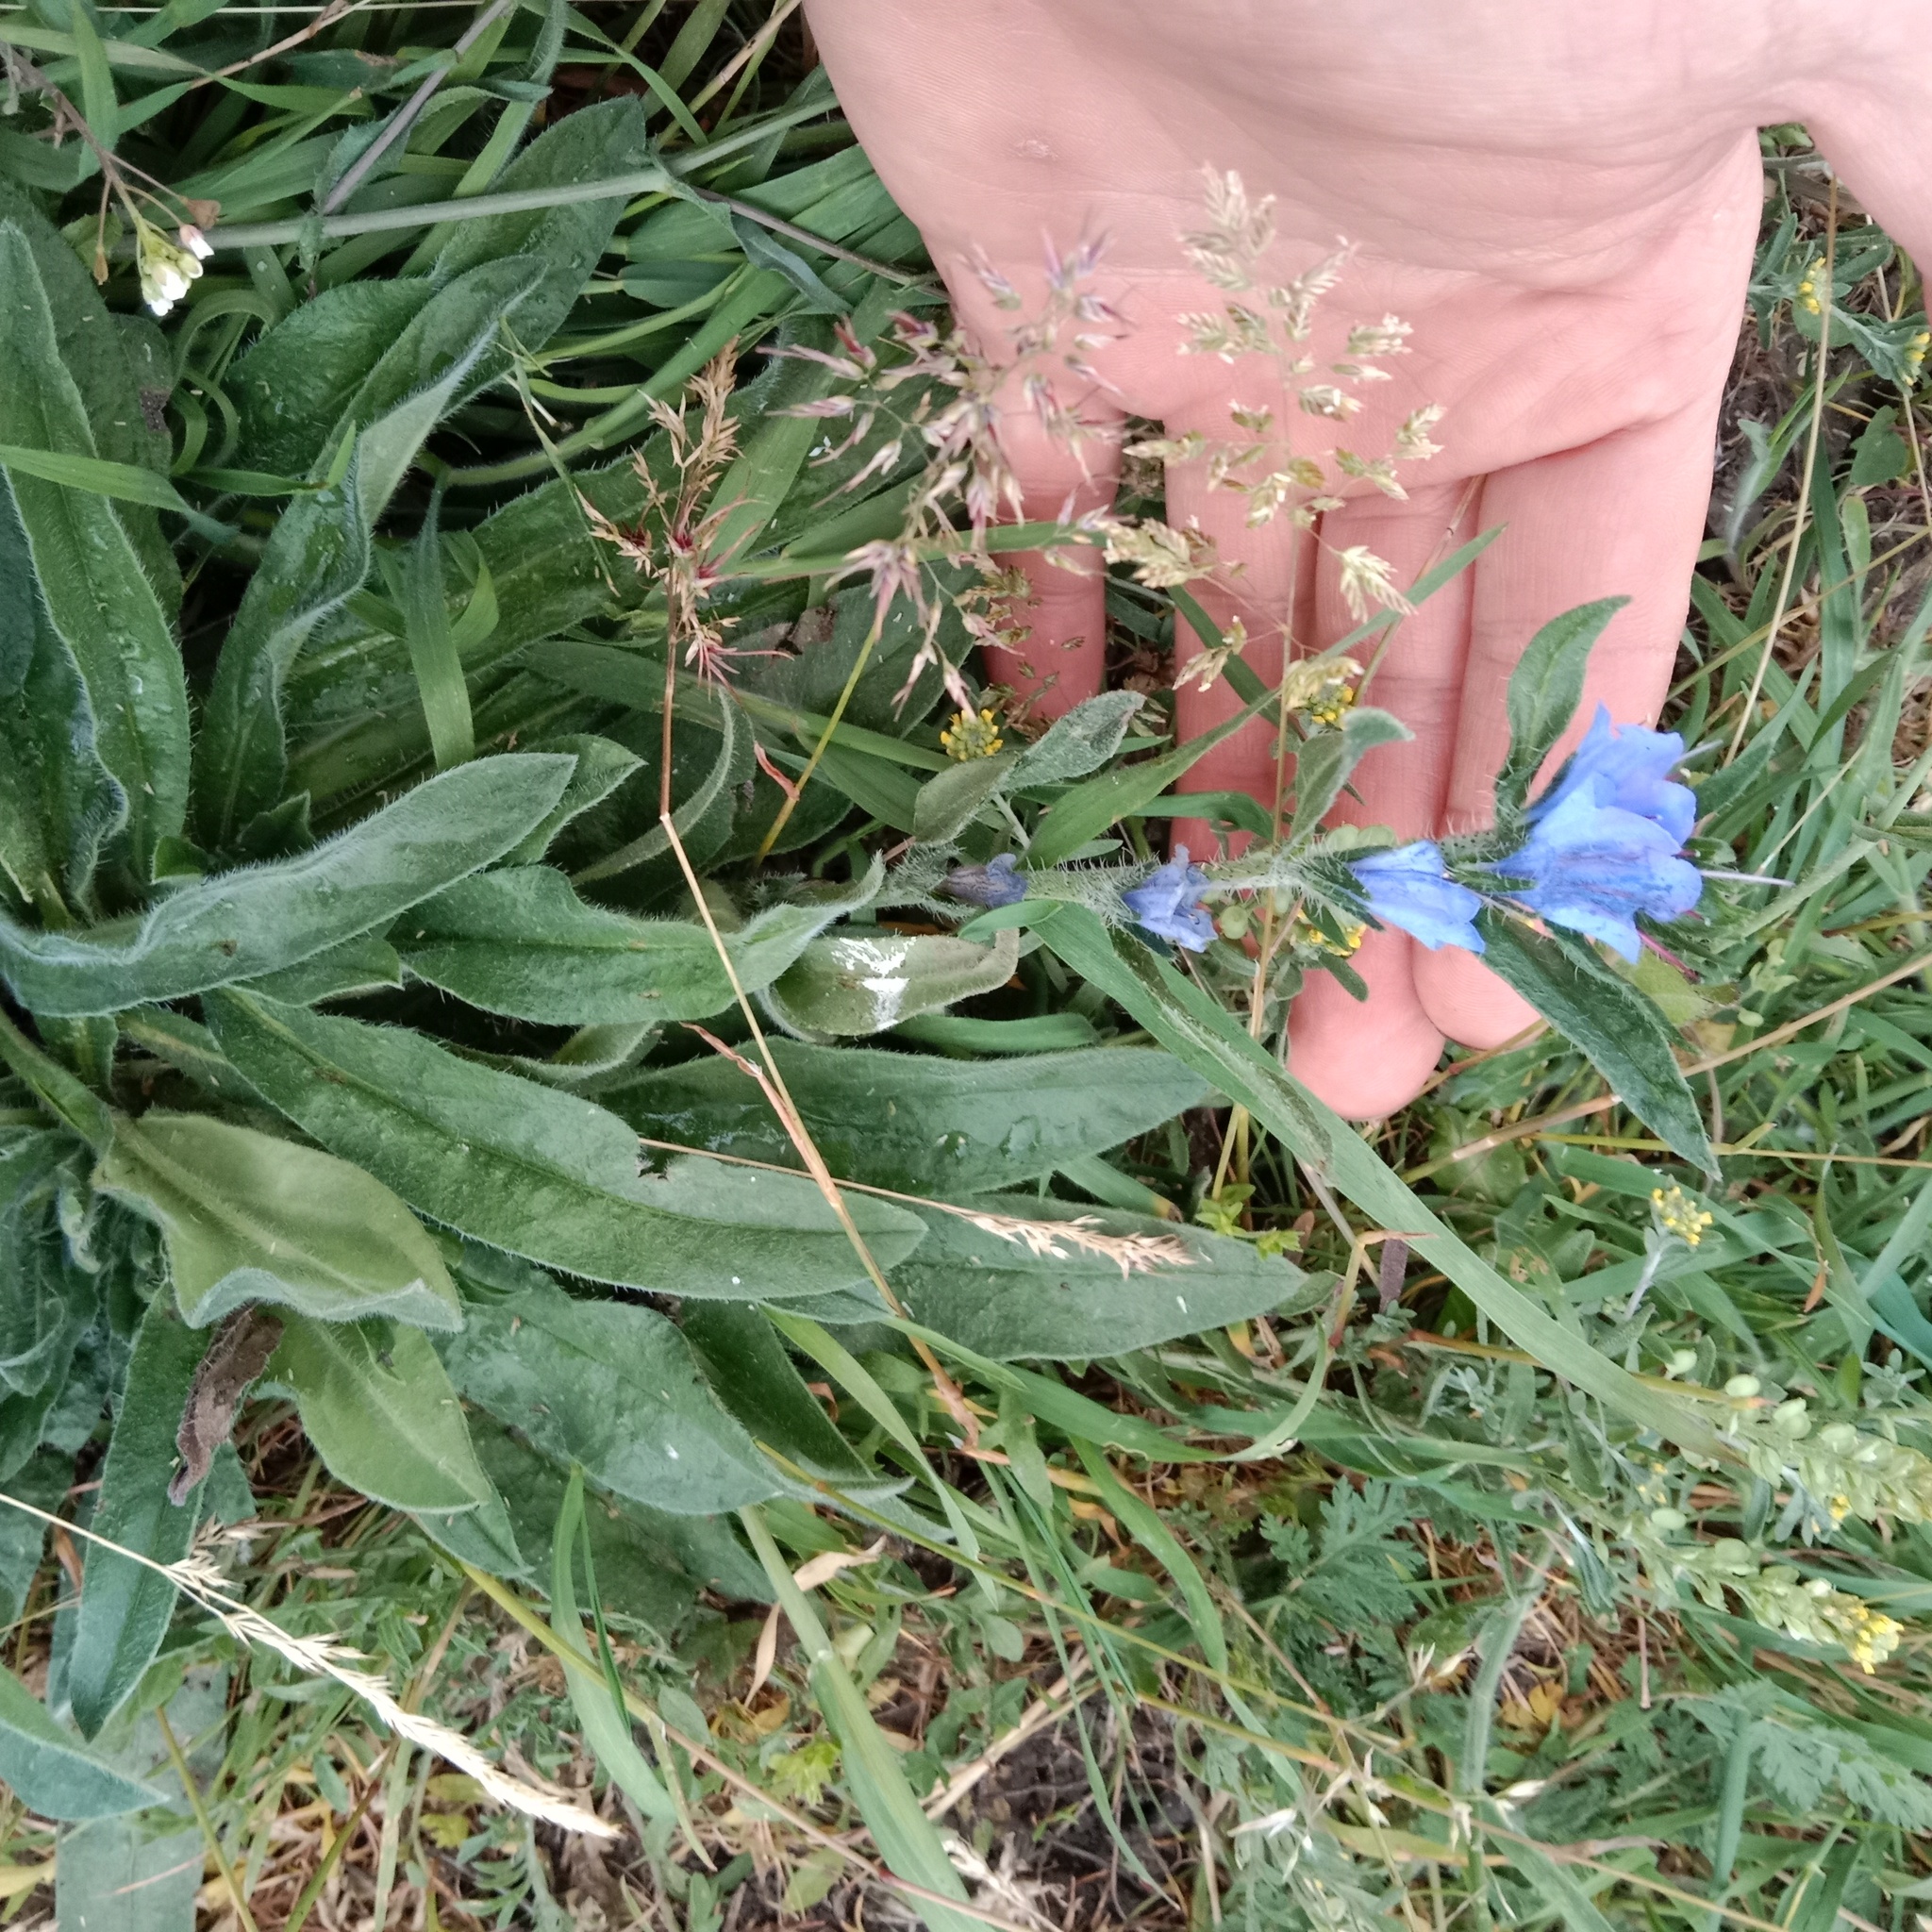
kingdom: Plantae
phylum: Tracheophyta
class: Magnoliopsida
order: Boraginales
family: Boraginaceae
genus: Echium
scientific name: Echium vulgare
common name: Common viper's bugloss
